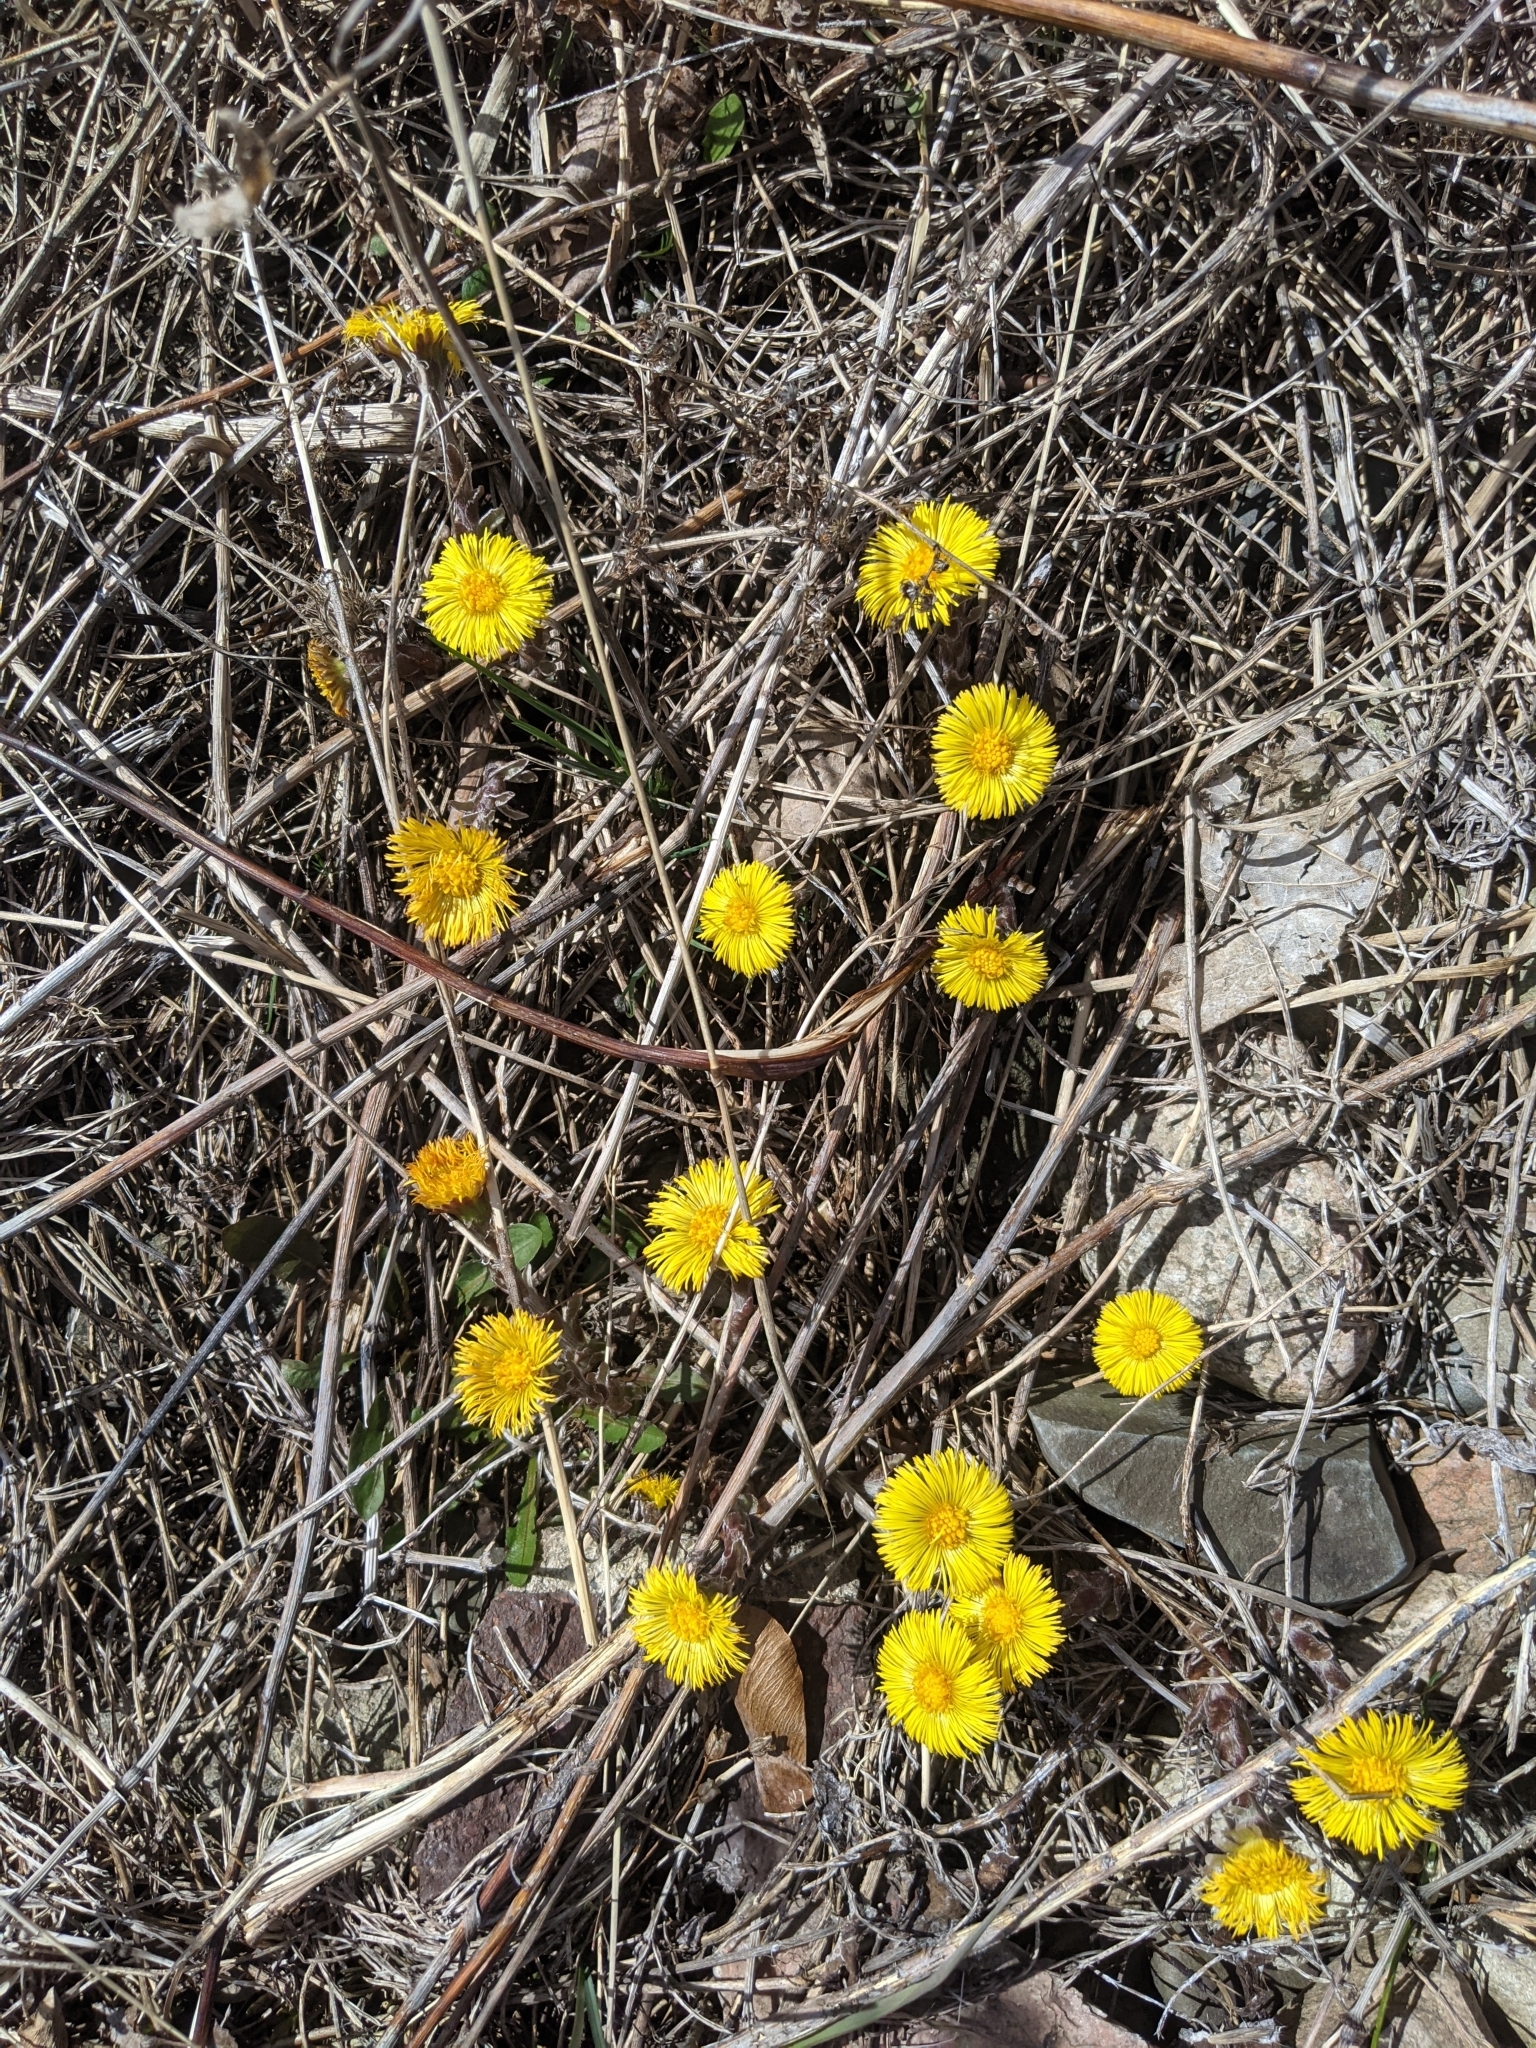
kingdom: Plantae
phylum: Tracheophyta
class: Magnoliopsida
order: Asterales
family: Asteraceae
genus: Tussilago
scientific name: Tussilago farfara
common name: Coltsfoot
